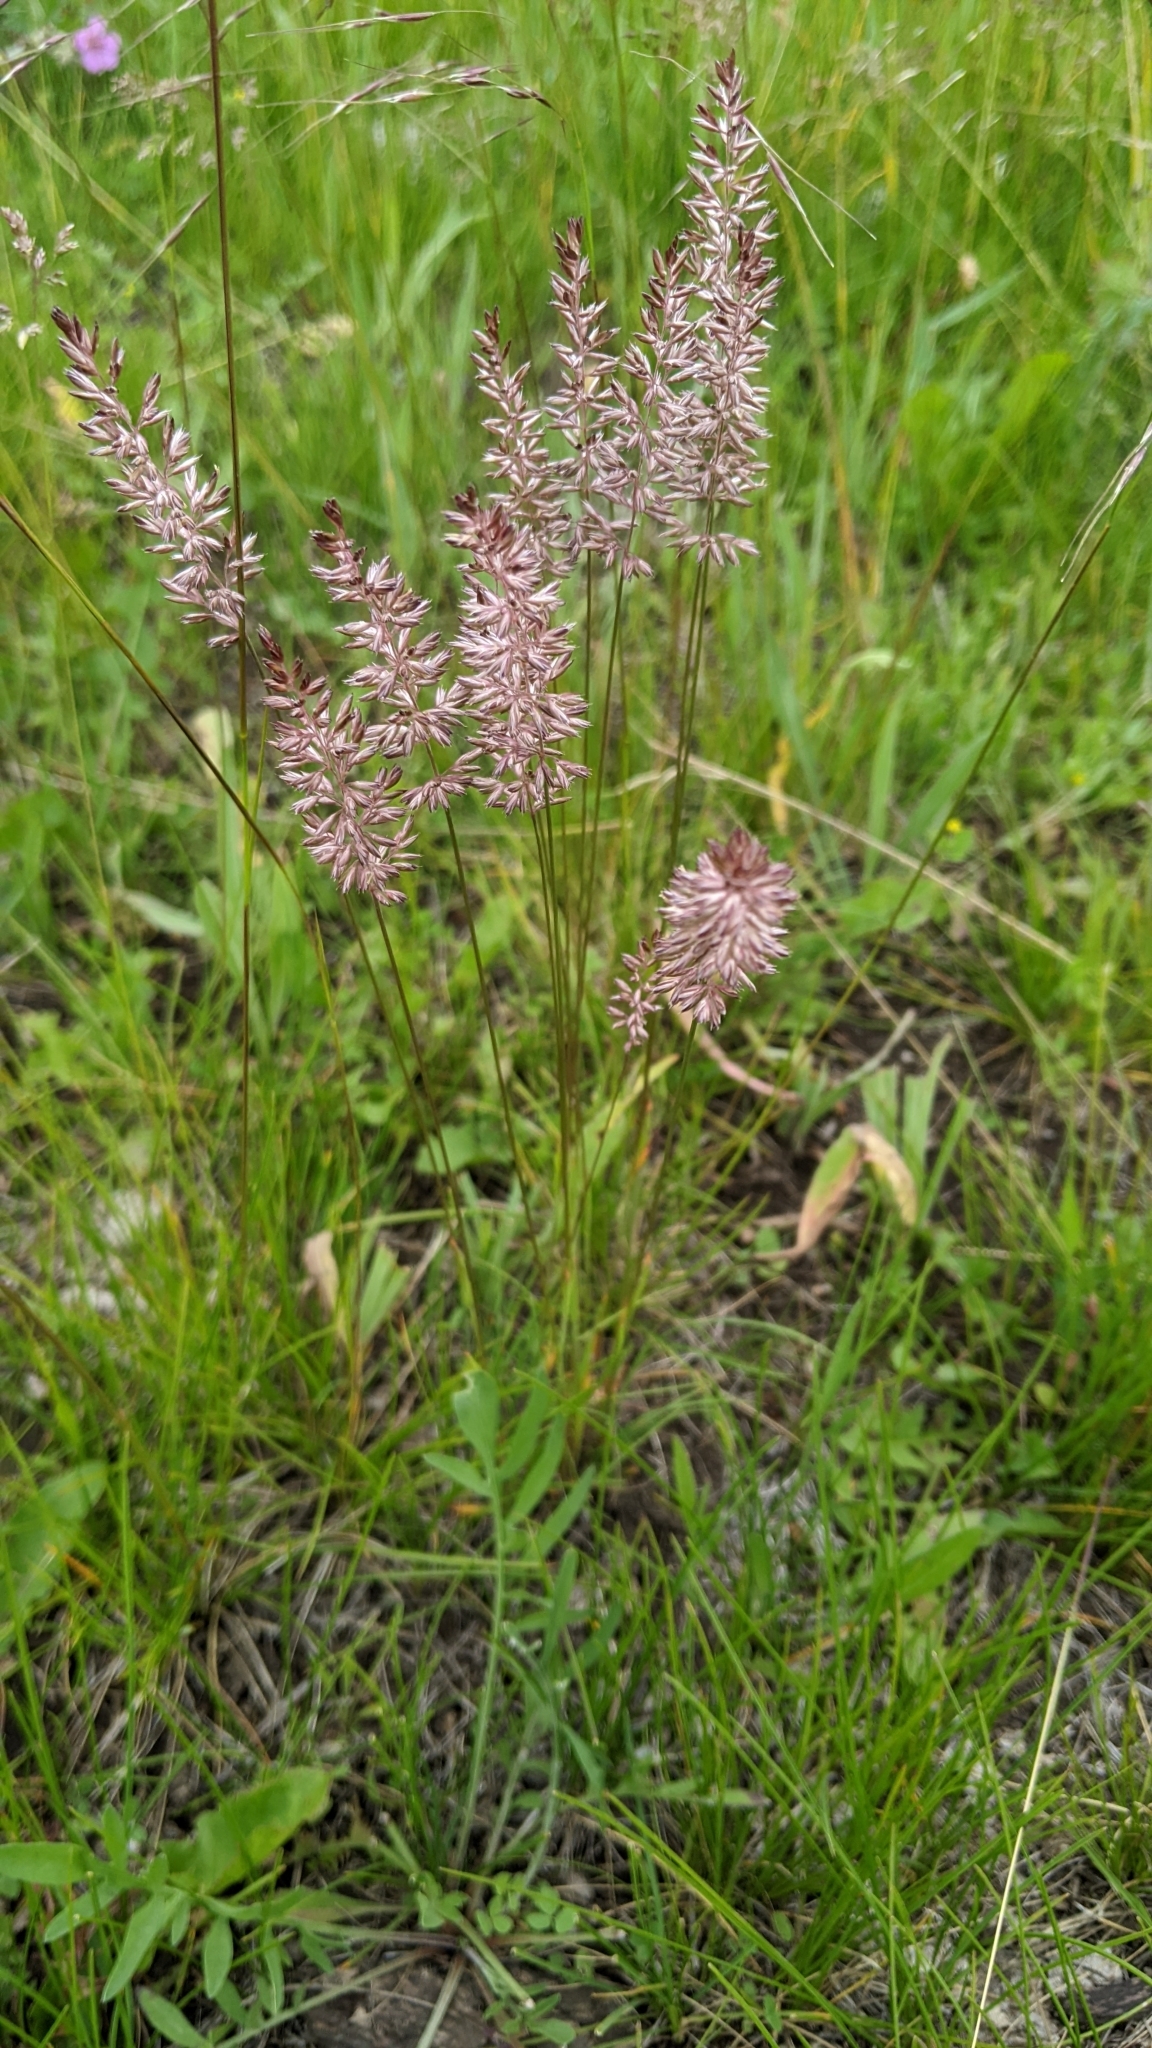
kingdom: Plantae
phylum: Tracheophyta
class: Liliopsida
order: Poales
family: Poaceae
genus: Koeleria
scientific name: Koeleria macrantha
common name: Crested hair-grass
